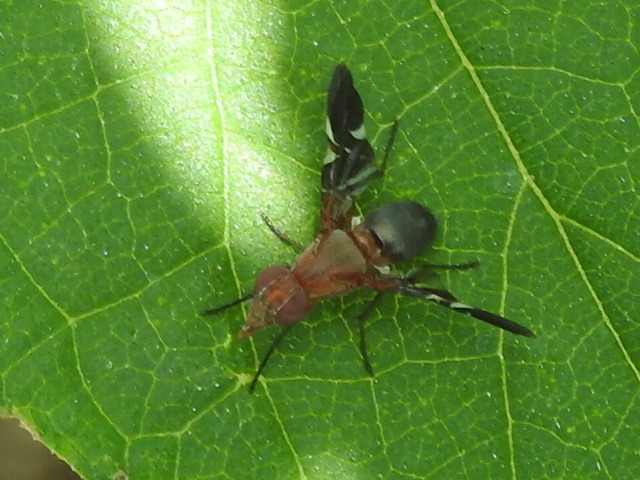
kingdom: Animalia
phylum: Arthropoda
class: Insecta
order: Diptera
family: Ulidiidae
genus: Delphinia
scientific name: Delphinia picta
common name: Common picture-winged fly
